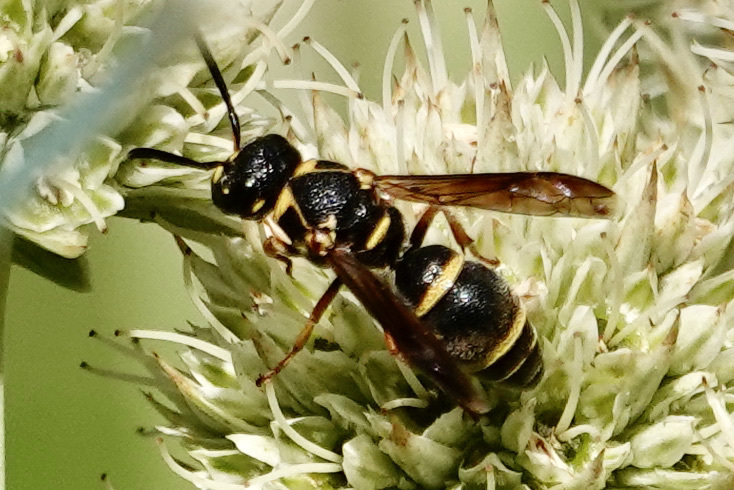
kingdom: Animalia
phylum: Arthropoda
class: Insecta
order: Hymenoptera
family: Eumenidae
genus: Rhynchalastor
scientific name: Rhynchalastor fundatiformis
